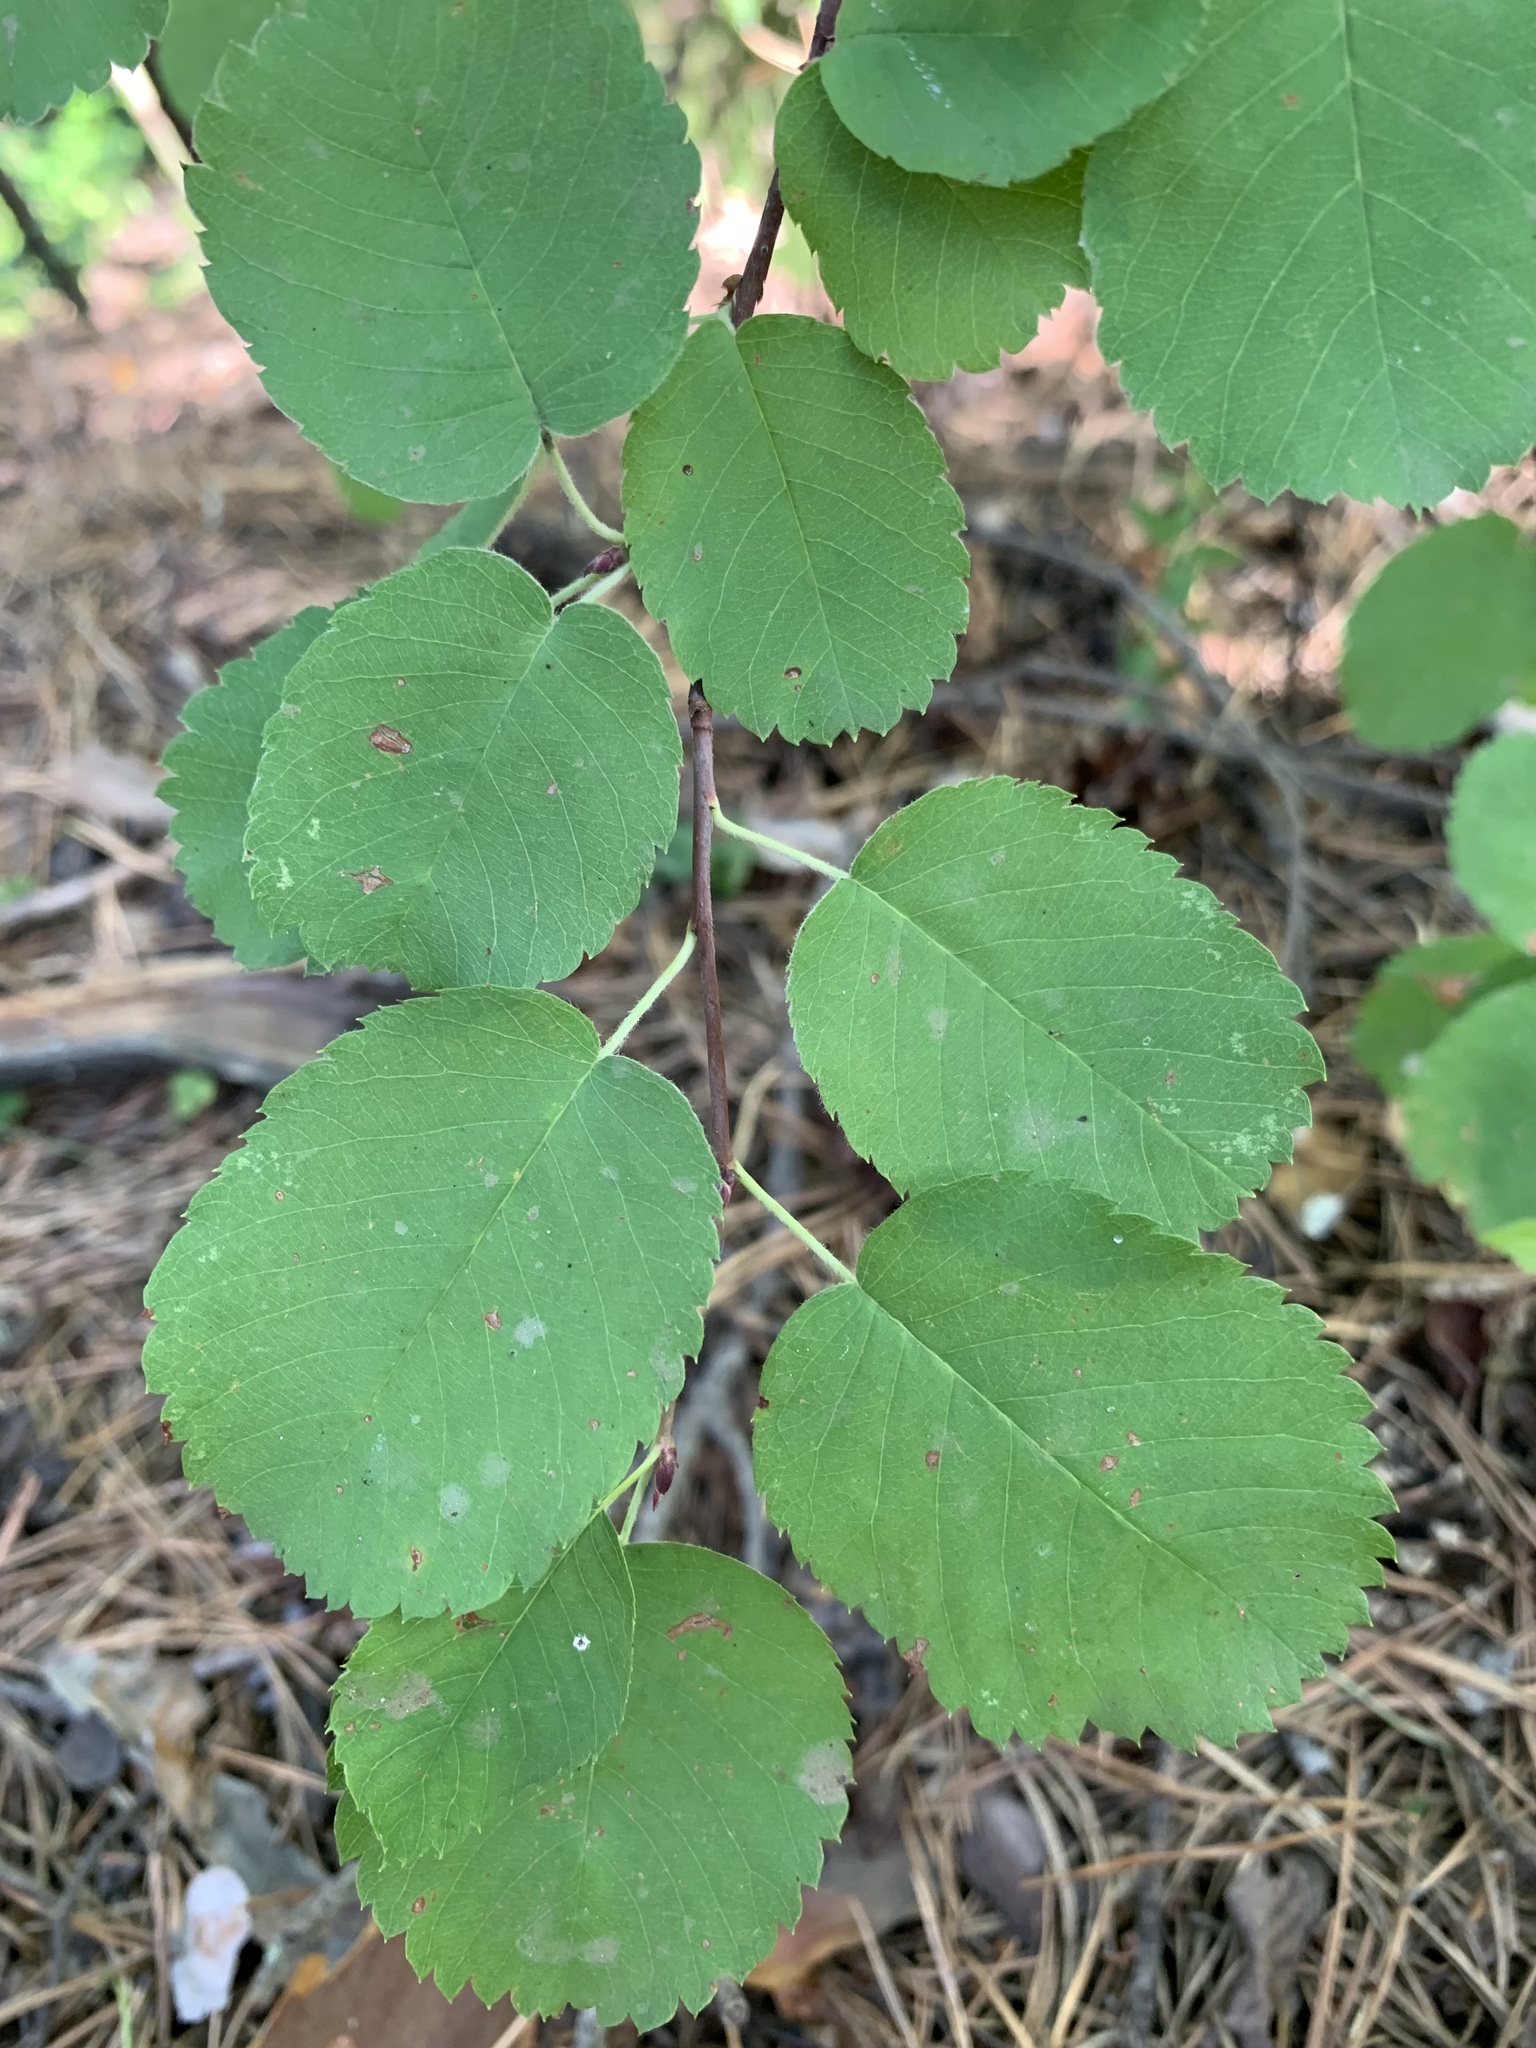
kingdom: Plantae
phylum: Tracheophyta
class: Magnoliopsida
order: Rosales
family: Rosaceae
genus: Amelanchier
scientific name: Amelanchier alnifolia
